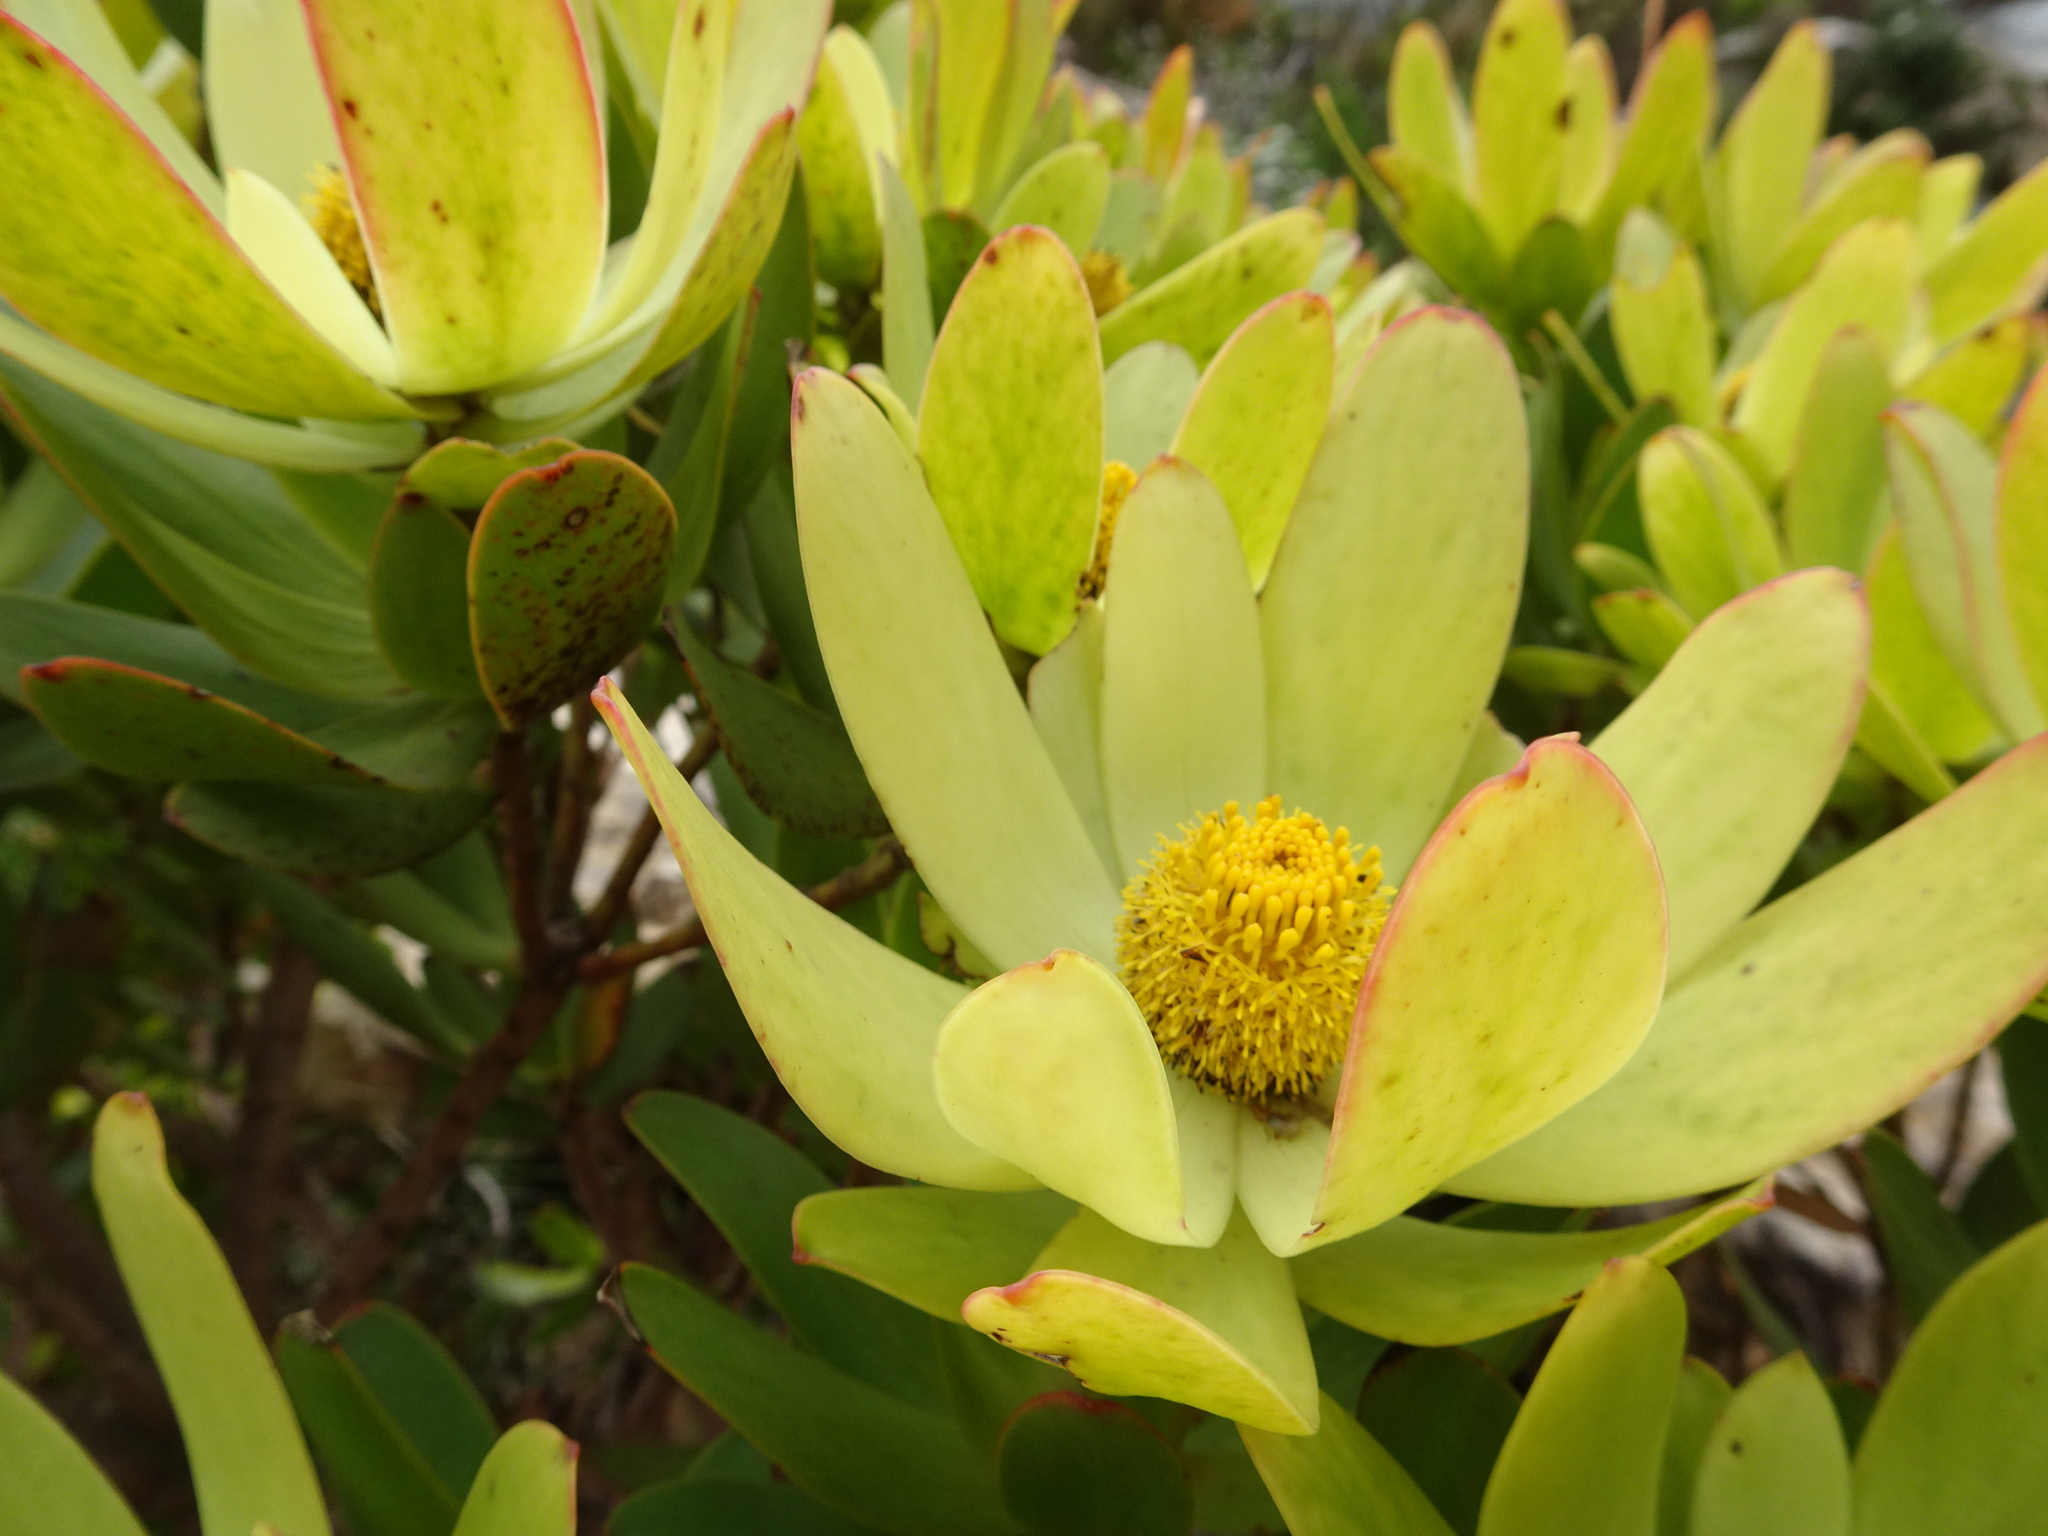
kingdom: Plantae
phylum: Tracheophyta
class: Magnoliopsida
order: Proteales
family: Proteaceae
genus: Leucadendron
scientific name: Leucadendron gandogeri
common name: Broad-leaf conebush
